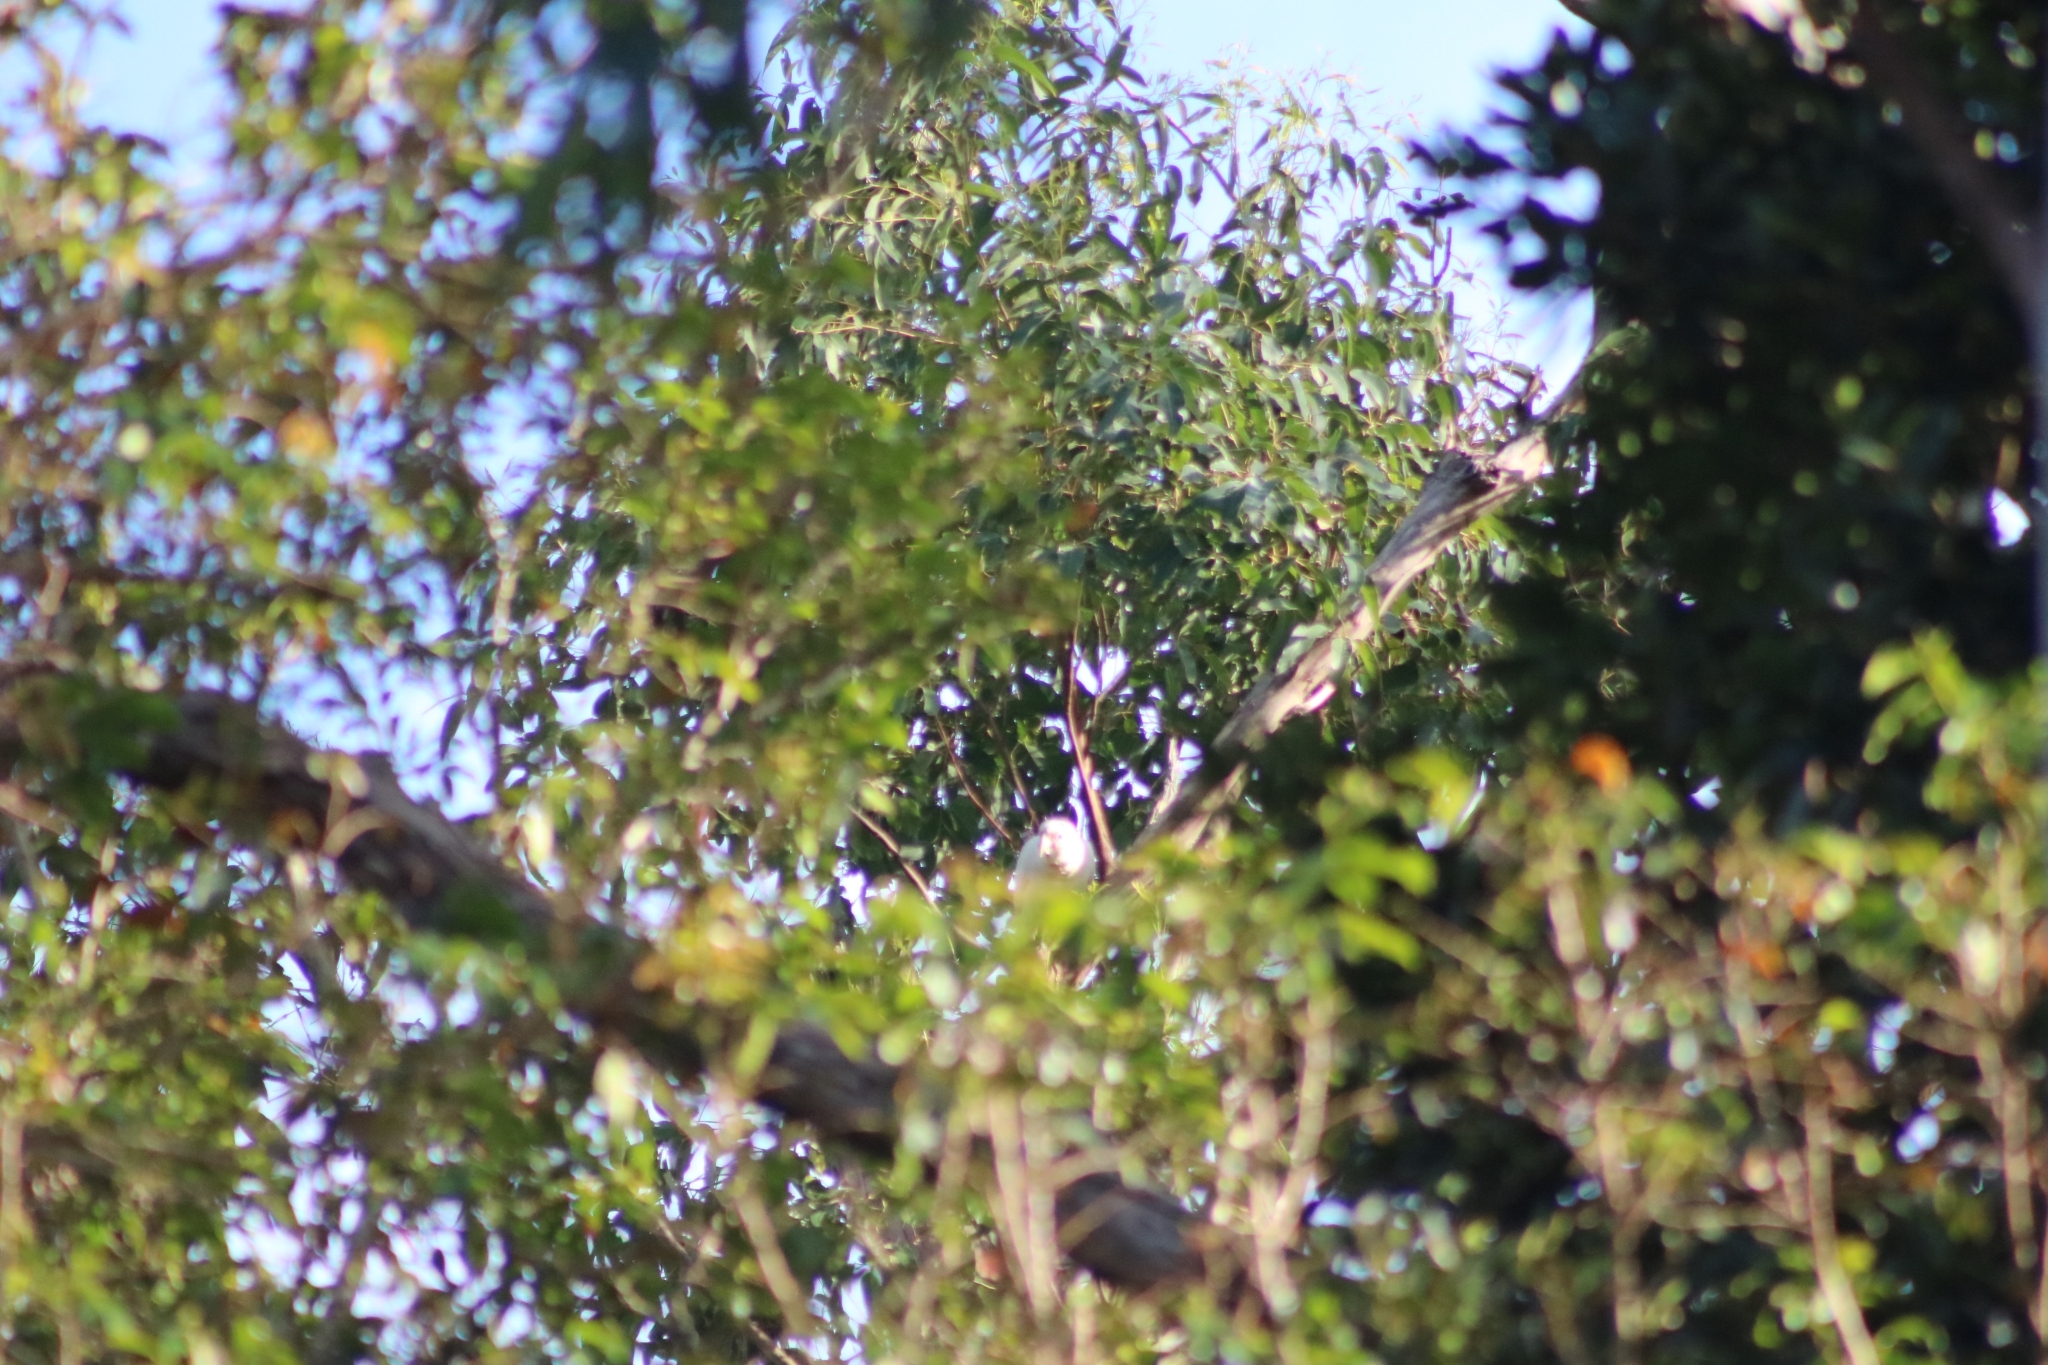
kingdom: Animalia
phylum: Chordata
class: Aves
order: Psittaciformes
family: Psittacidae
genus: Cacatua
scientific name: Cacatua tenuirostris
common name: Long-billed corella
